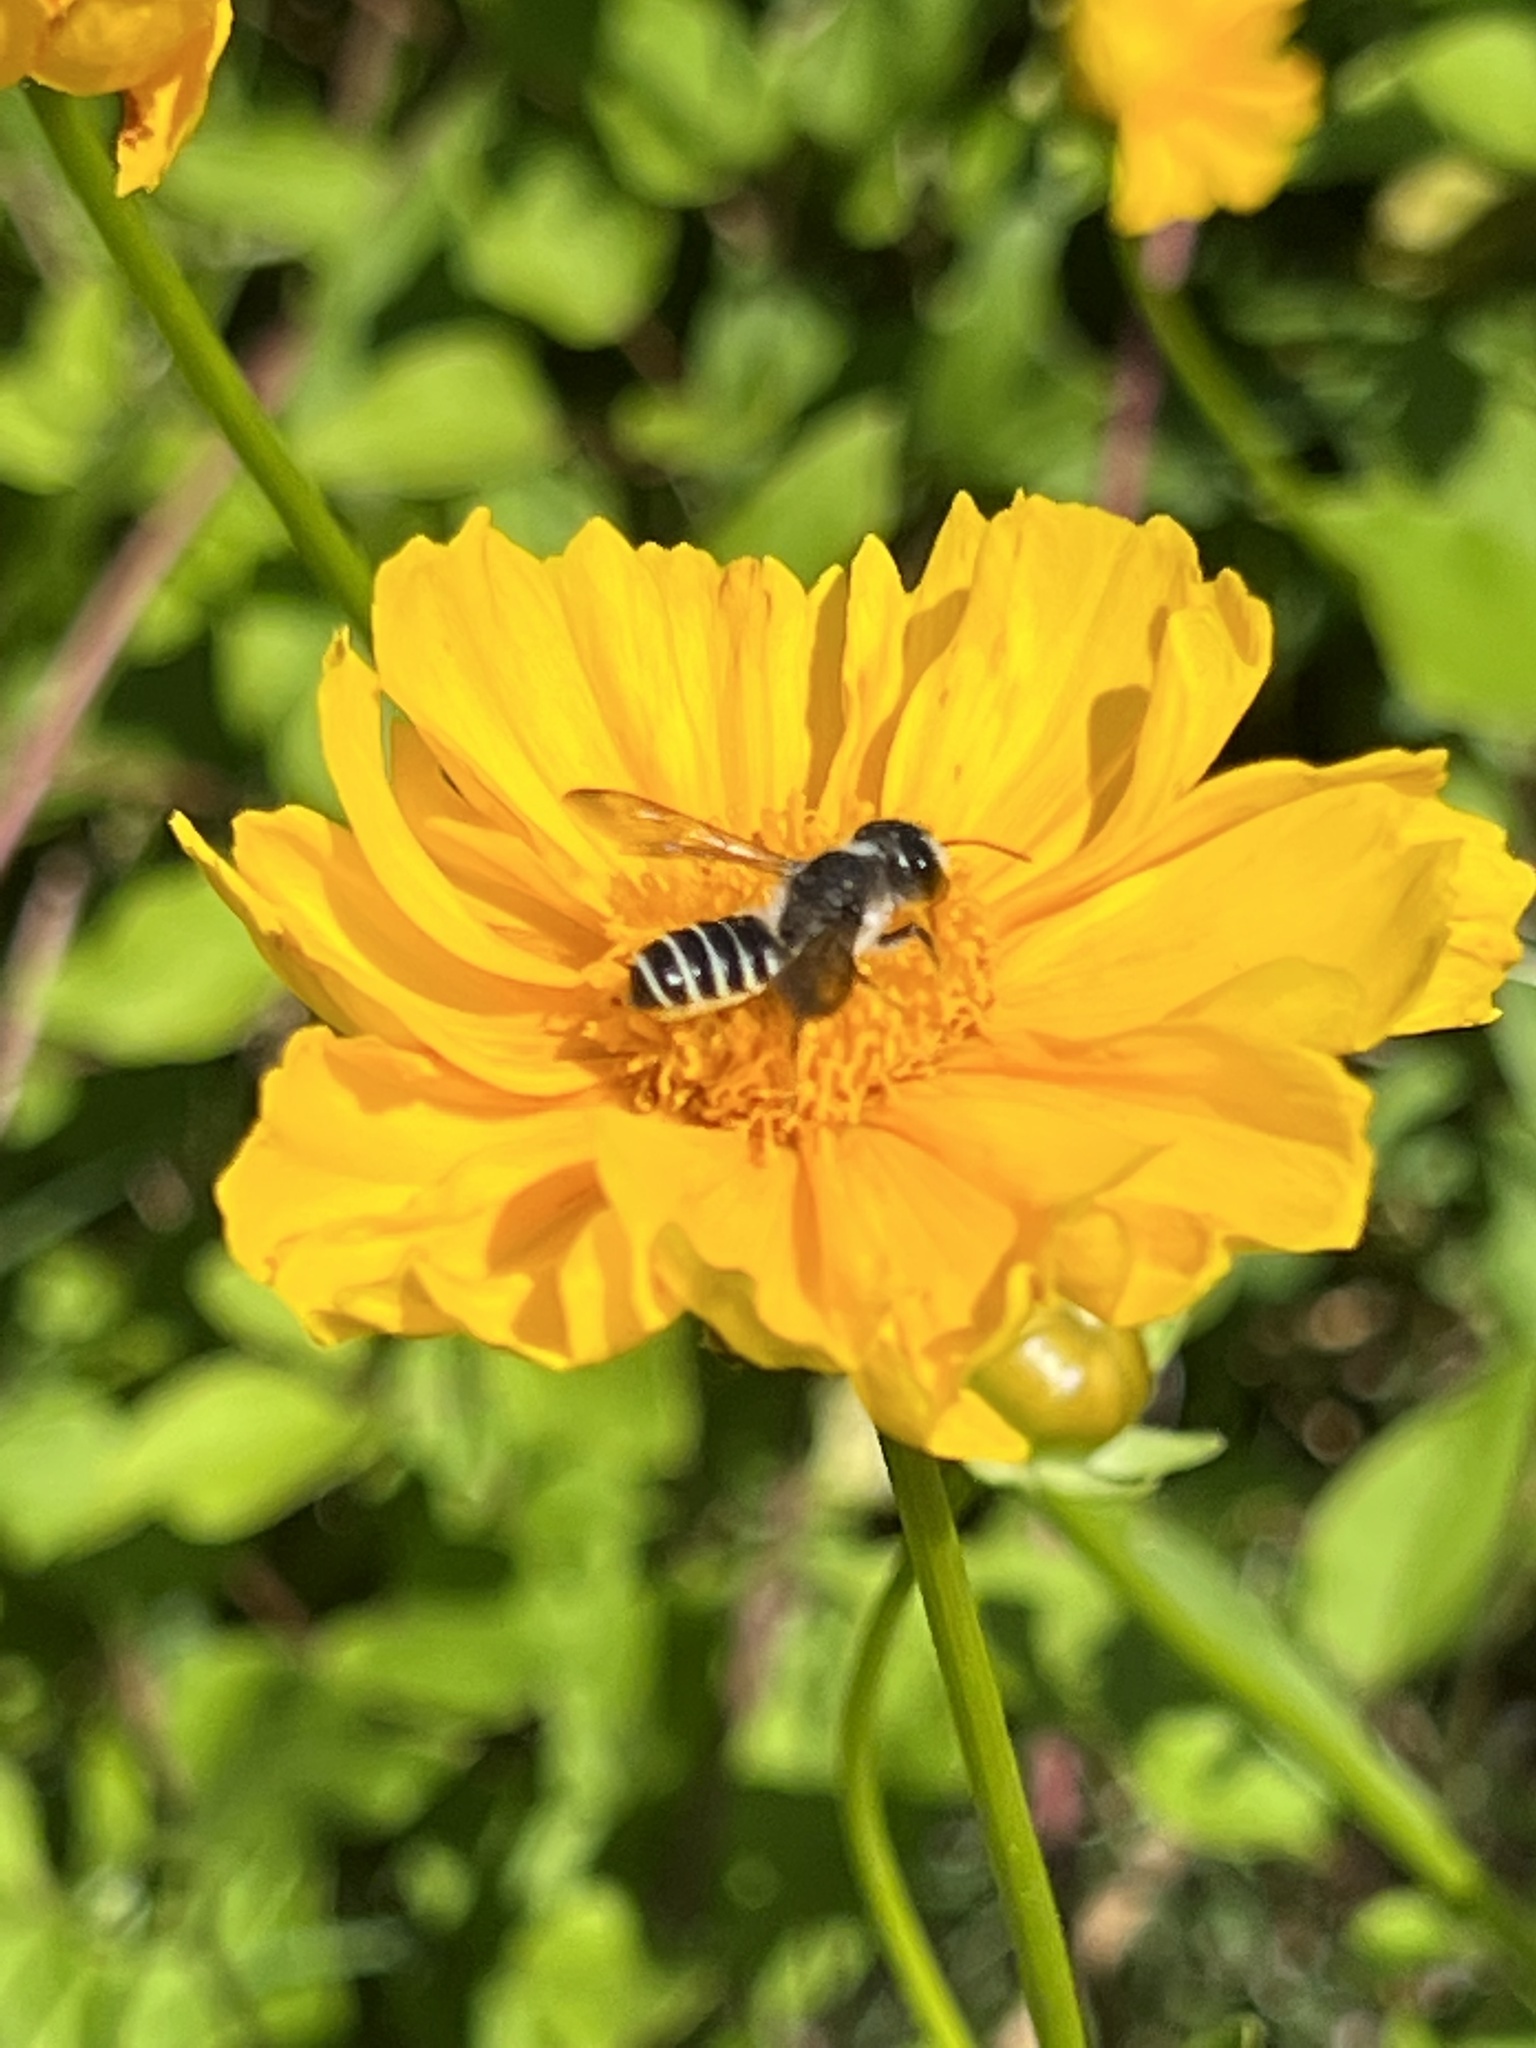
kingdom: Animalia
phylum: Arthropoda
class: Insecta
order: Hymenoptera
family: Megachilidae
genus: Megachile
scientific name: Megachile pugnata
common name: Pugnacious leafcutter bee
